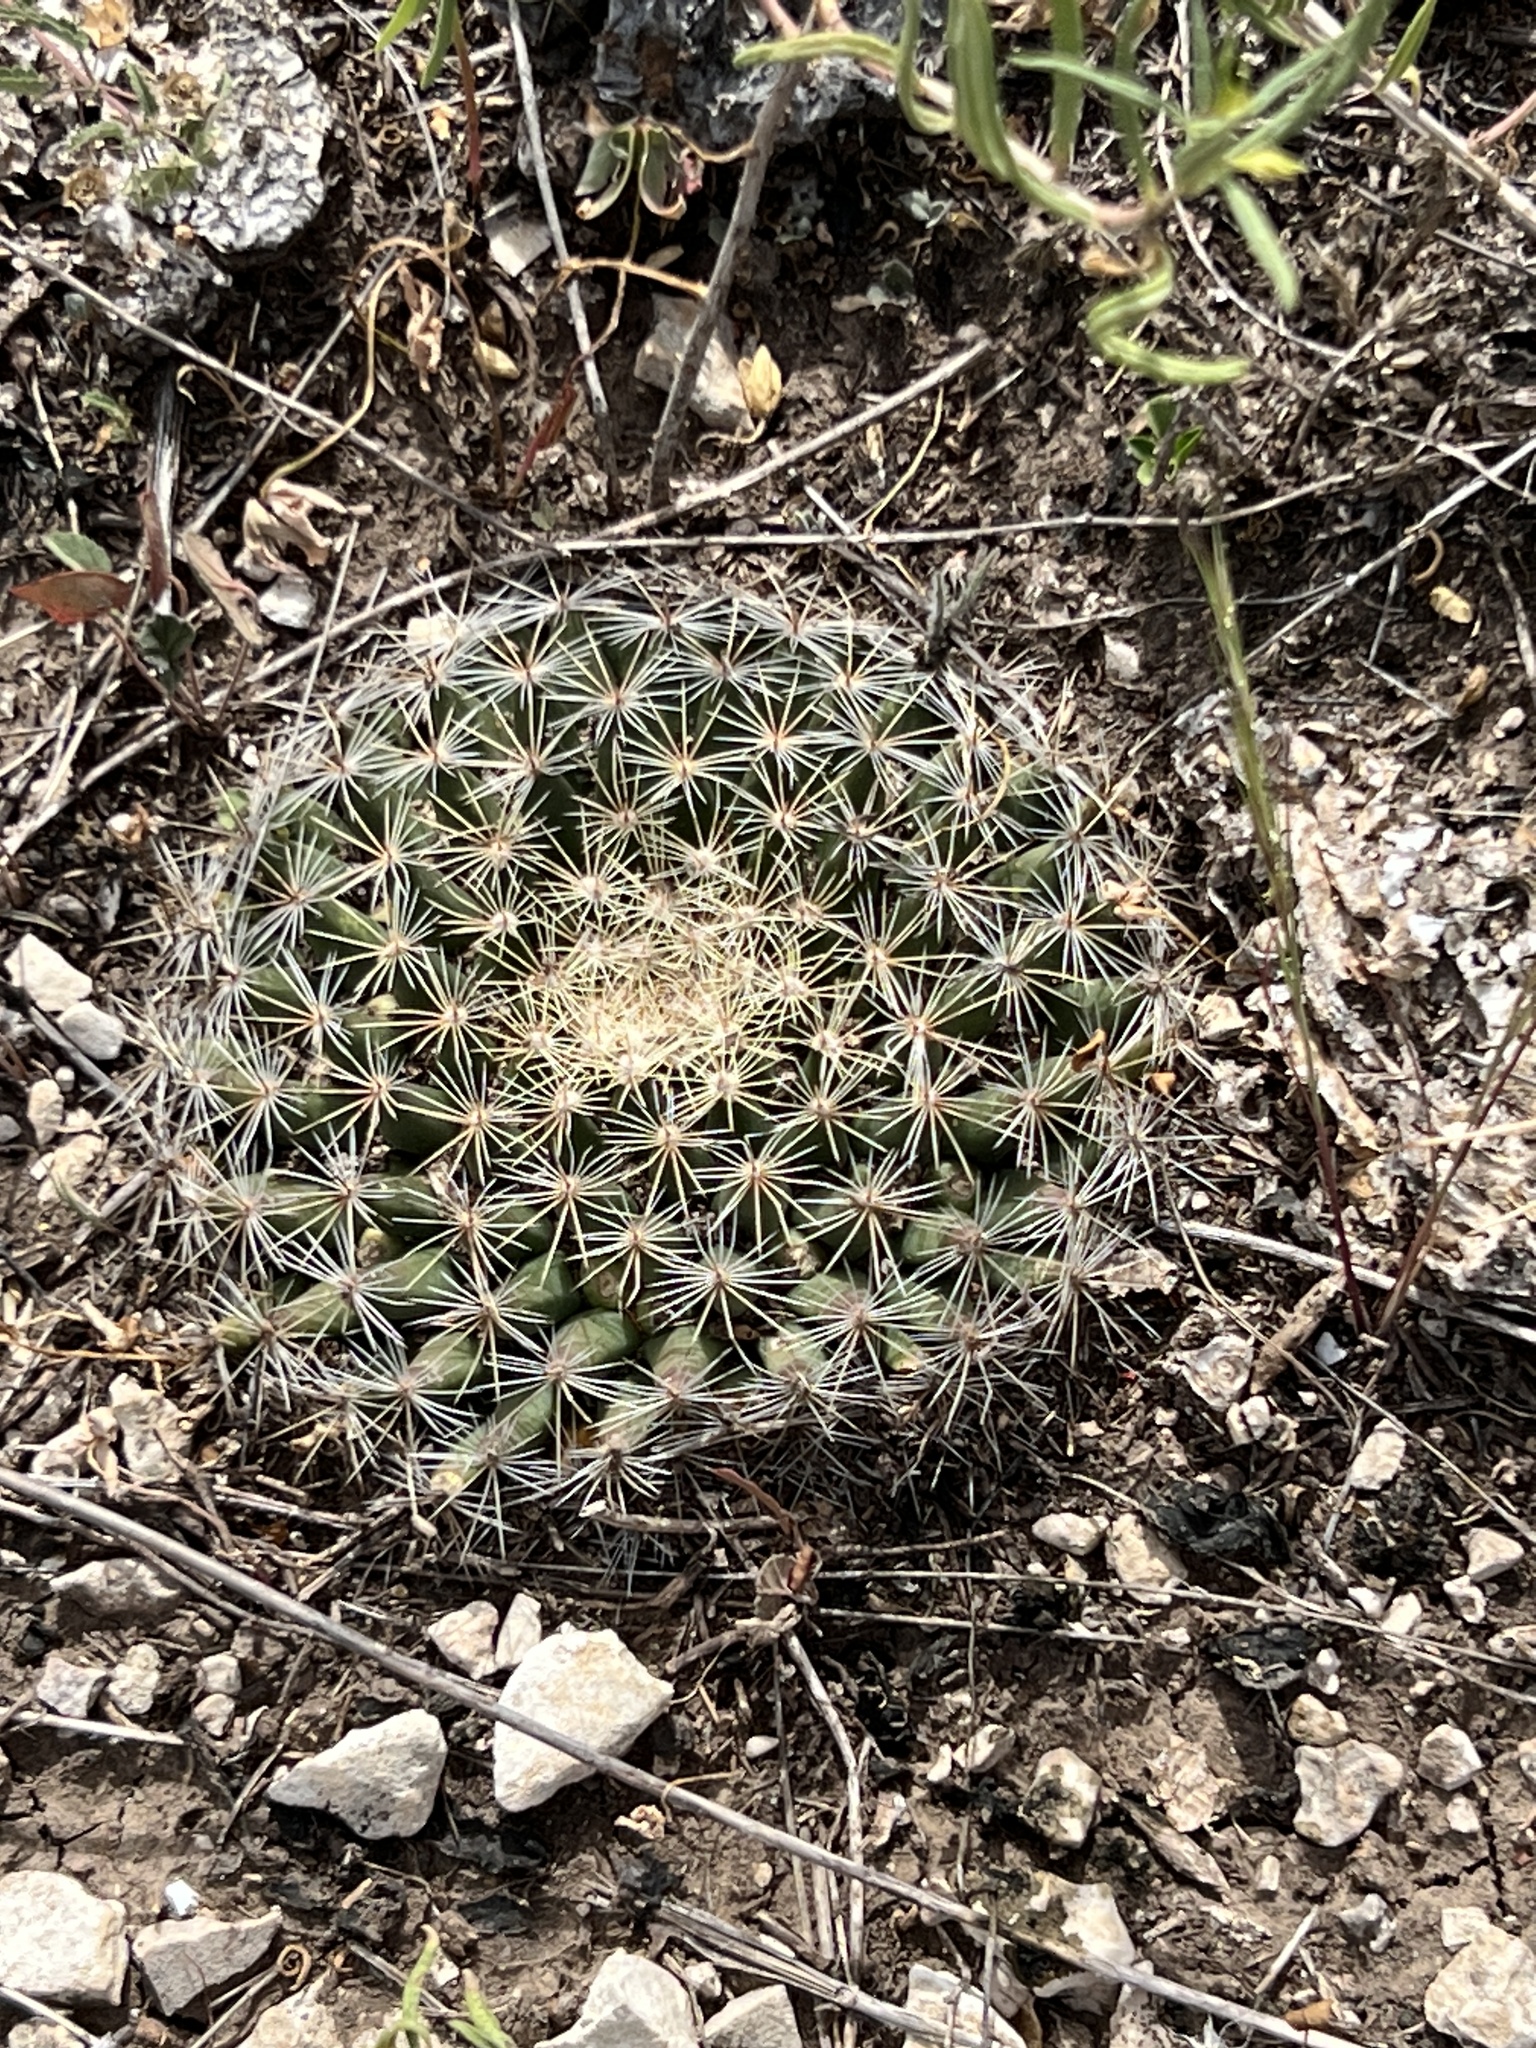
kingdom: Plantae
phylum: Tracheophyta
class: Magnoliopsida
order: Caryophyllales
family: Cactaceae
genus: Mammillaria
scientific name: Mammillaria heyderi
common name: Little nipple cactus
